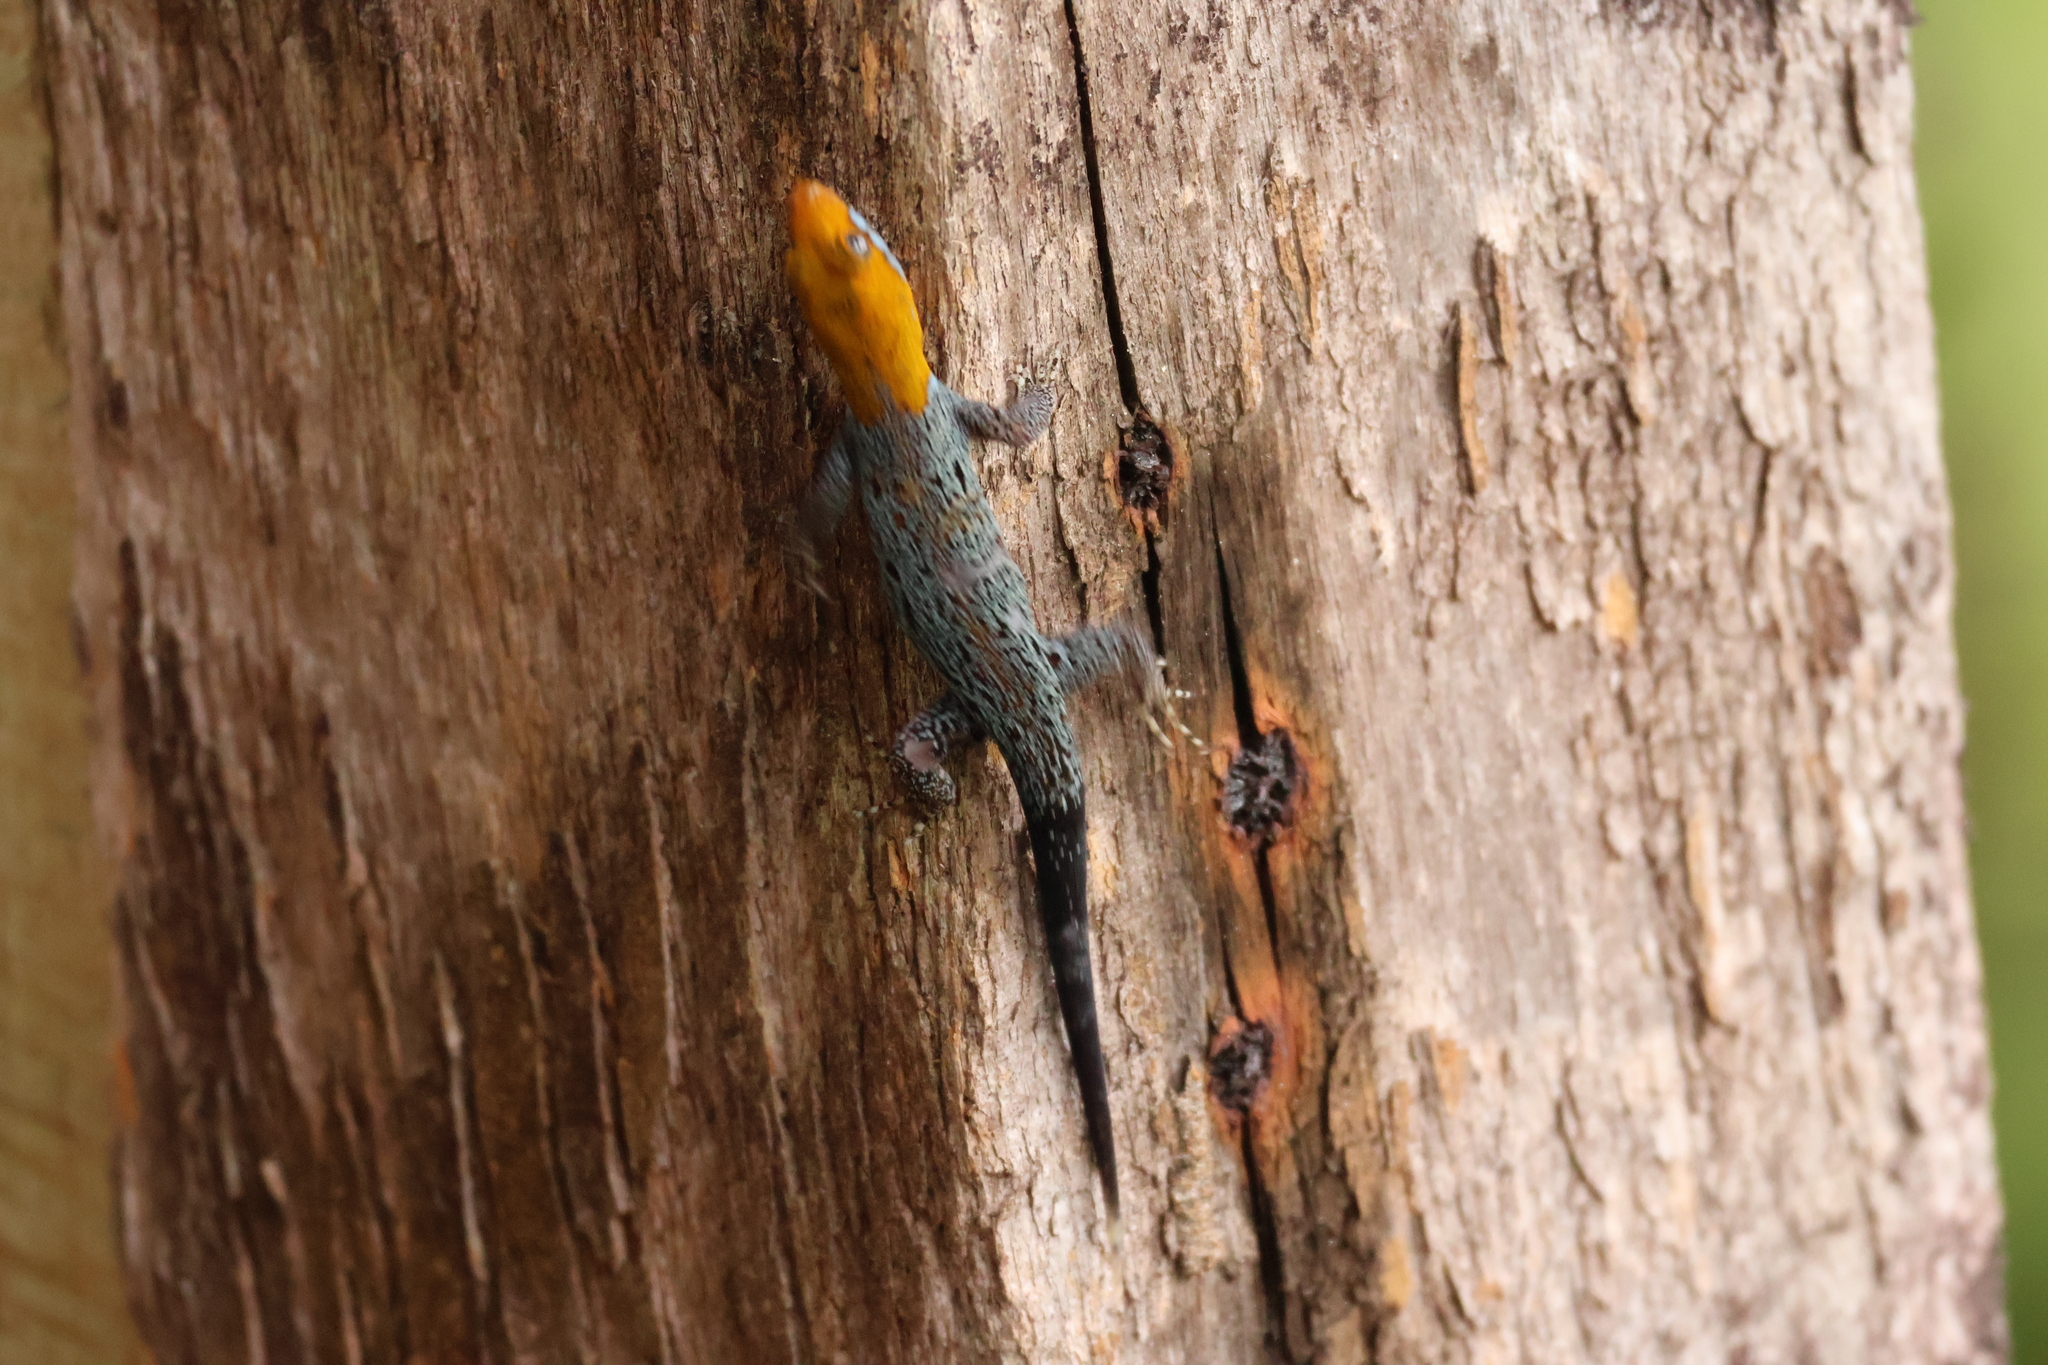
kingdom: Animalia
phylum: Chordata
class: Squamata
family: Sphaerodactylidae
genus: Gonatodes
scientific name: Gonatodes albogularis
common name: Yellow-headed gecko
